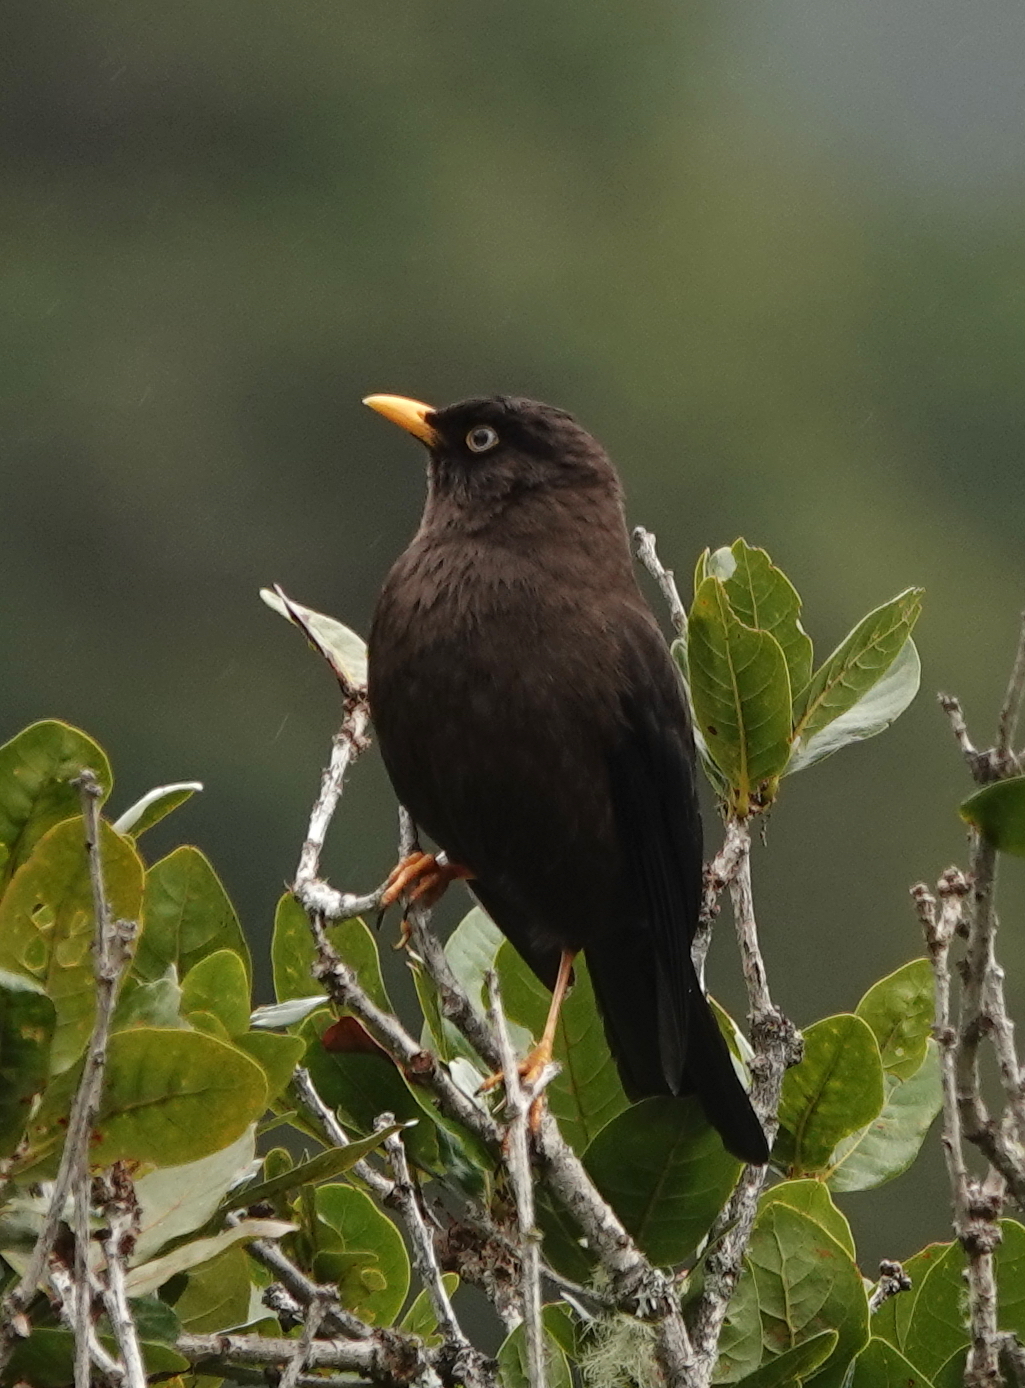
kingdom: Animalia
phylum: Chordata
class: Aves
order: Passeriformes
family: Turdidae
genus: Turdus
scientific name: Turdus nigrescens
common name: Sooty thrush
